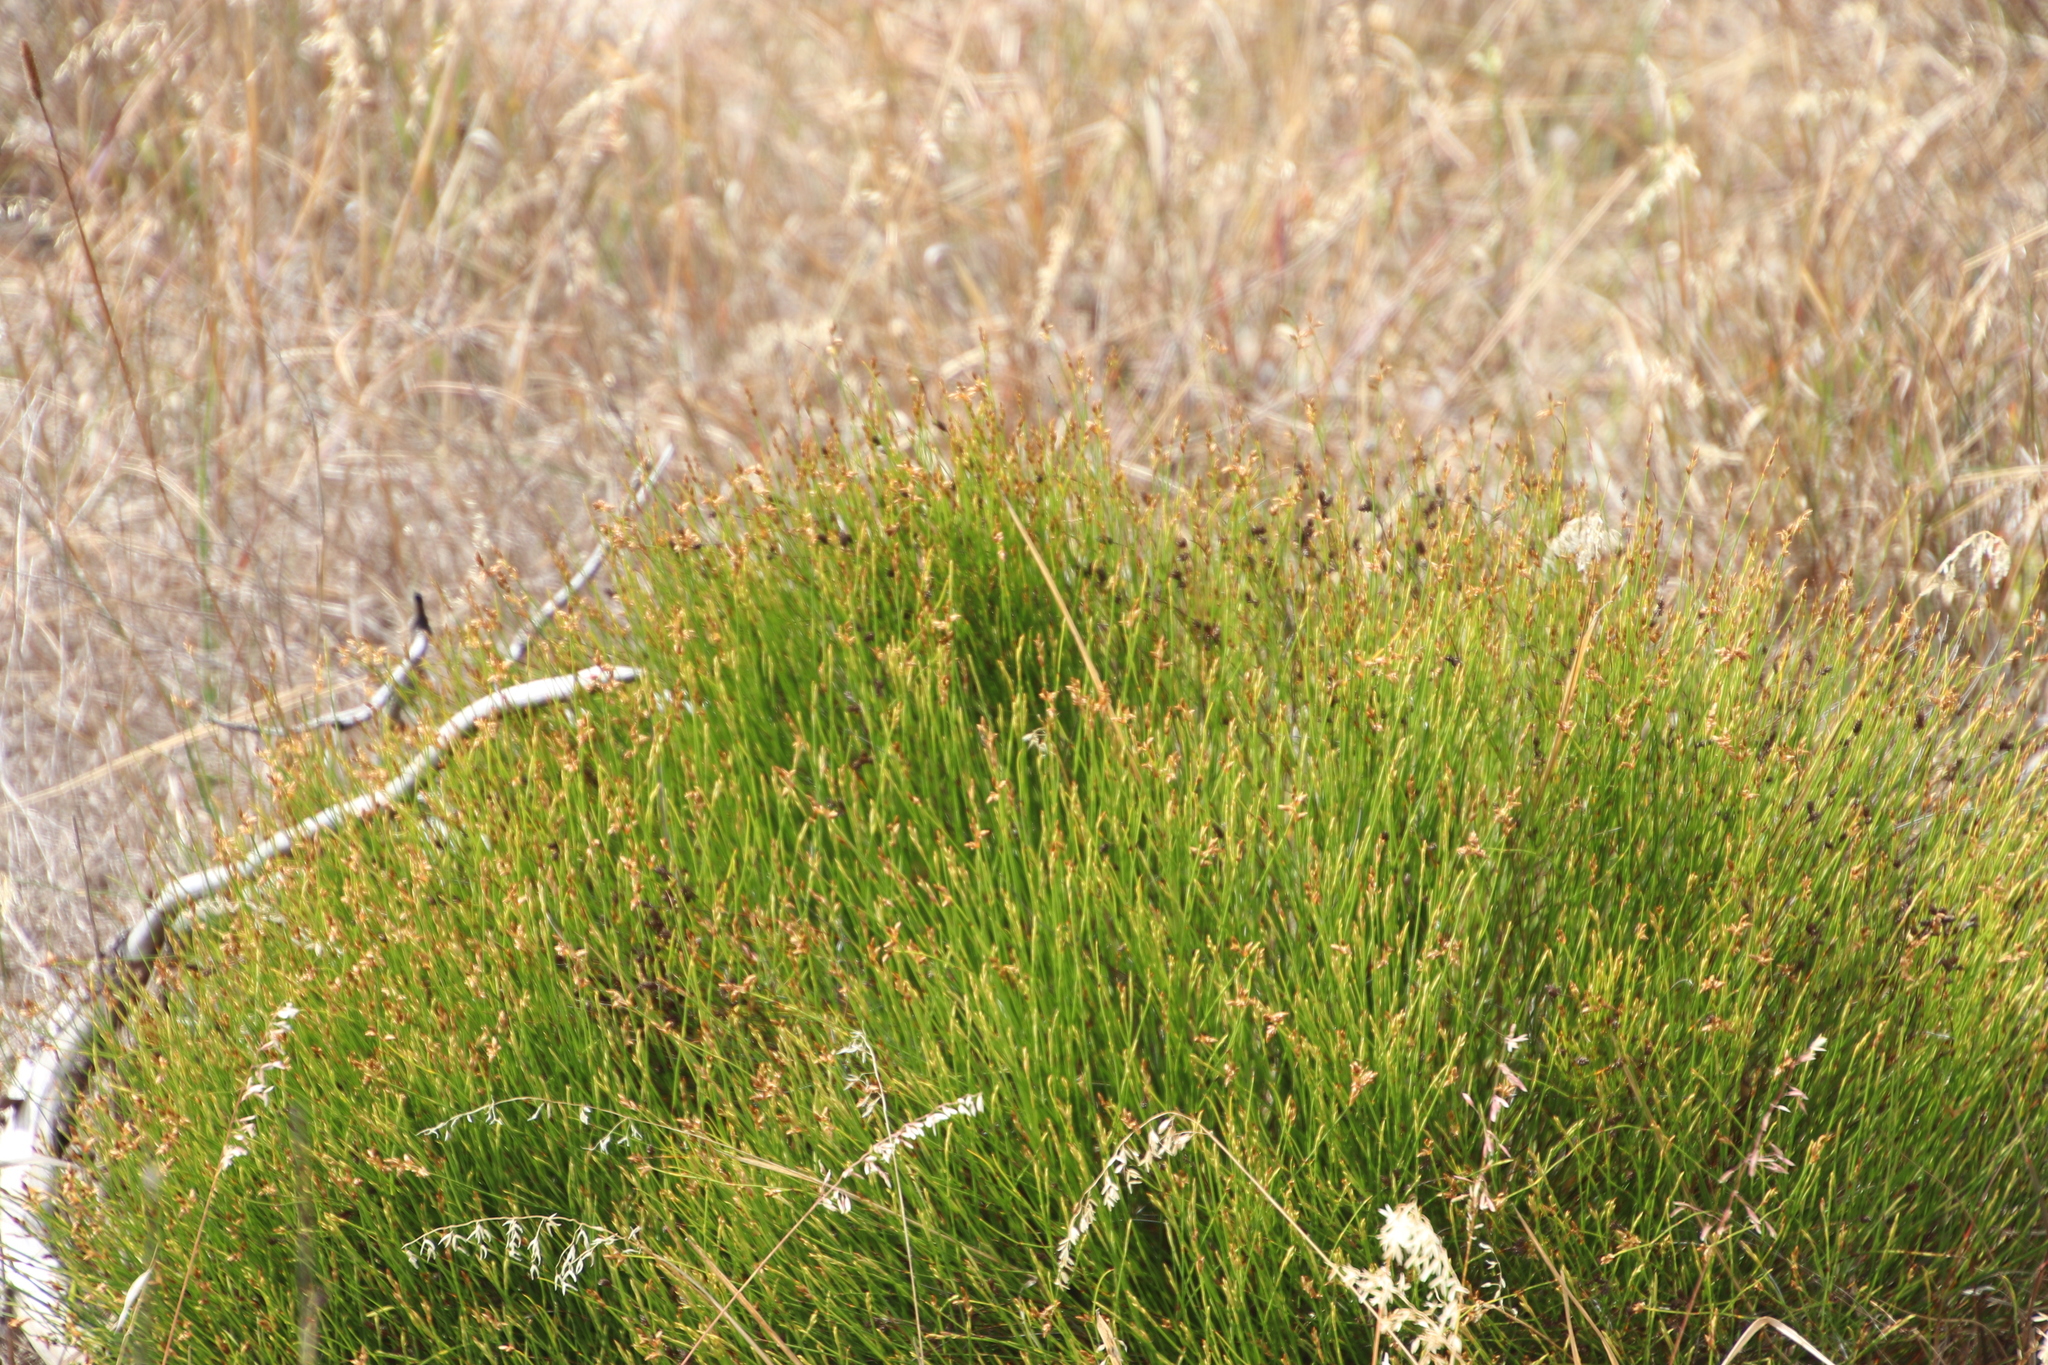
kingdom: Plantae
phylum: Tracheophyta
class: Liliopsida
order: Poales
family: Restionaceae
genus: Mastersiella
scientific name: Mastersiella digitata
